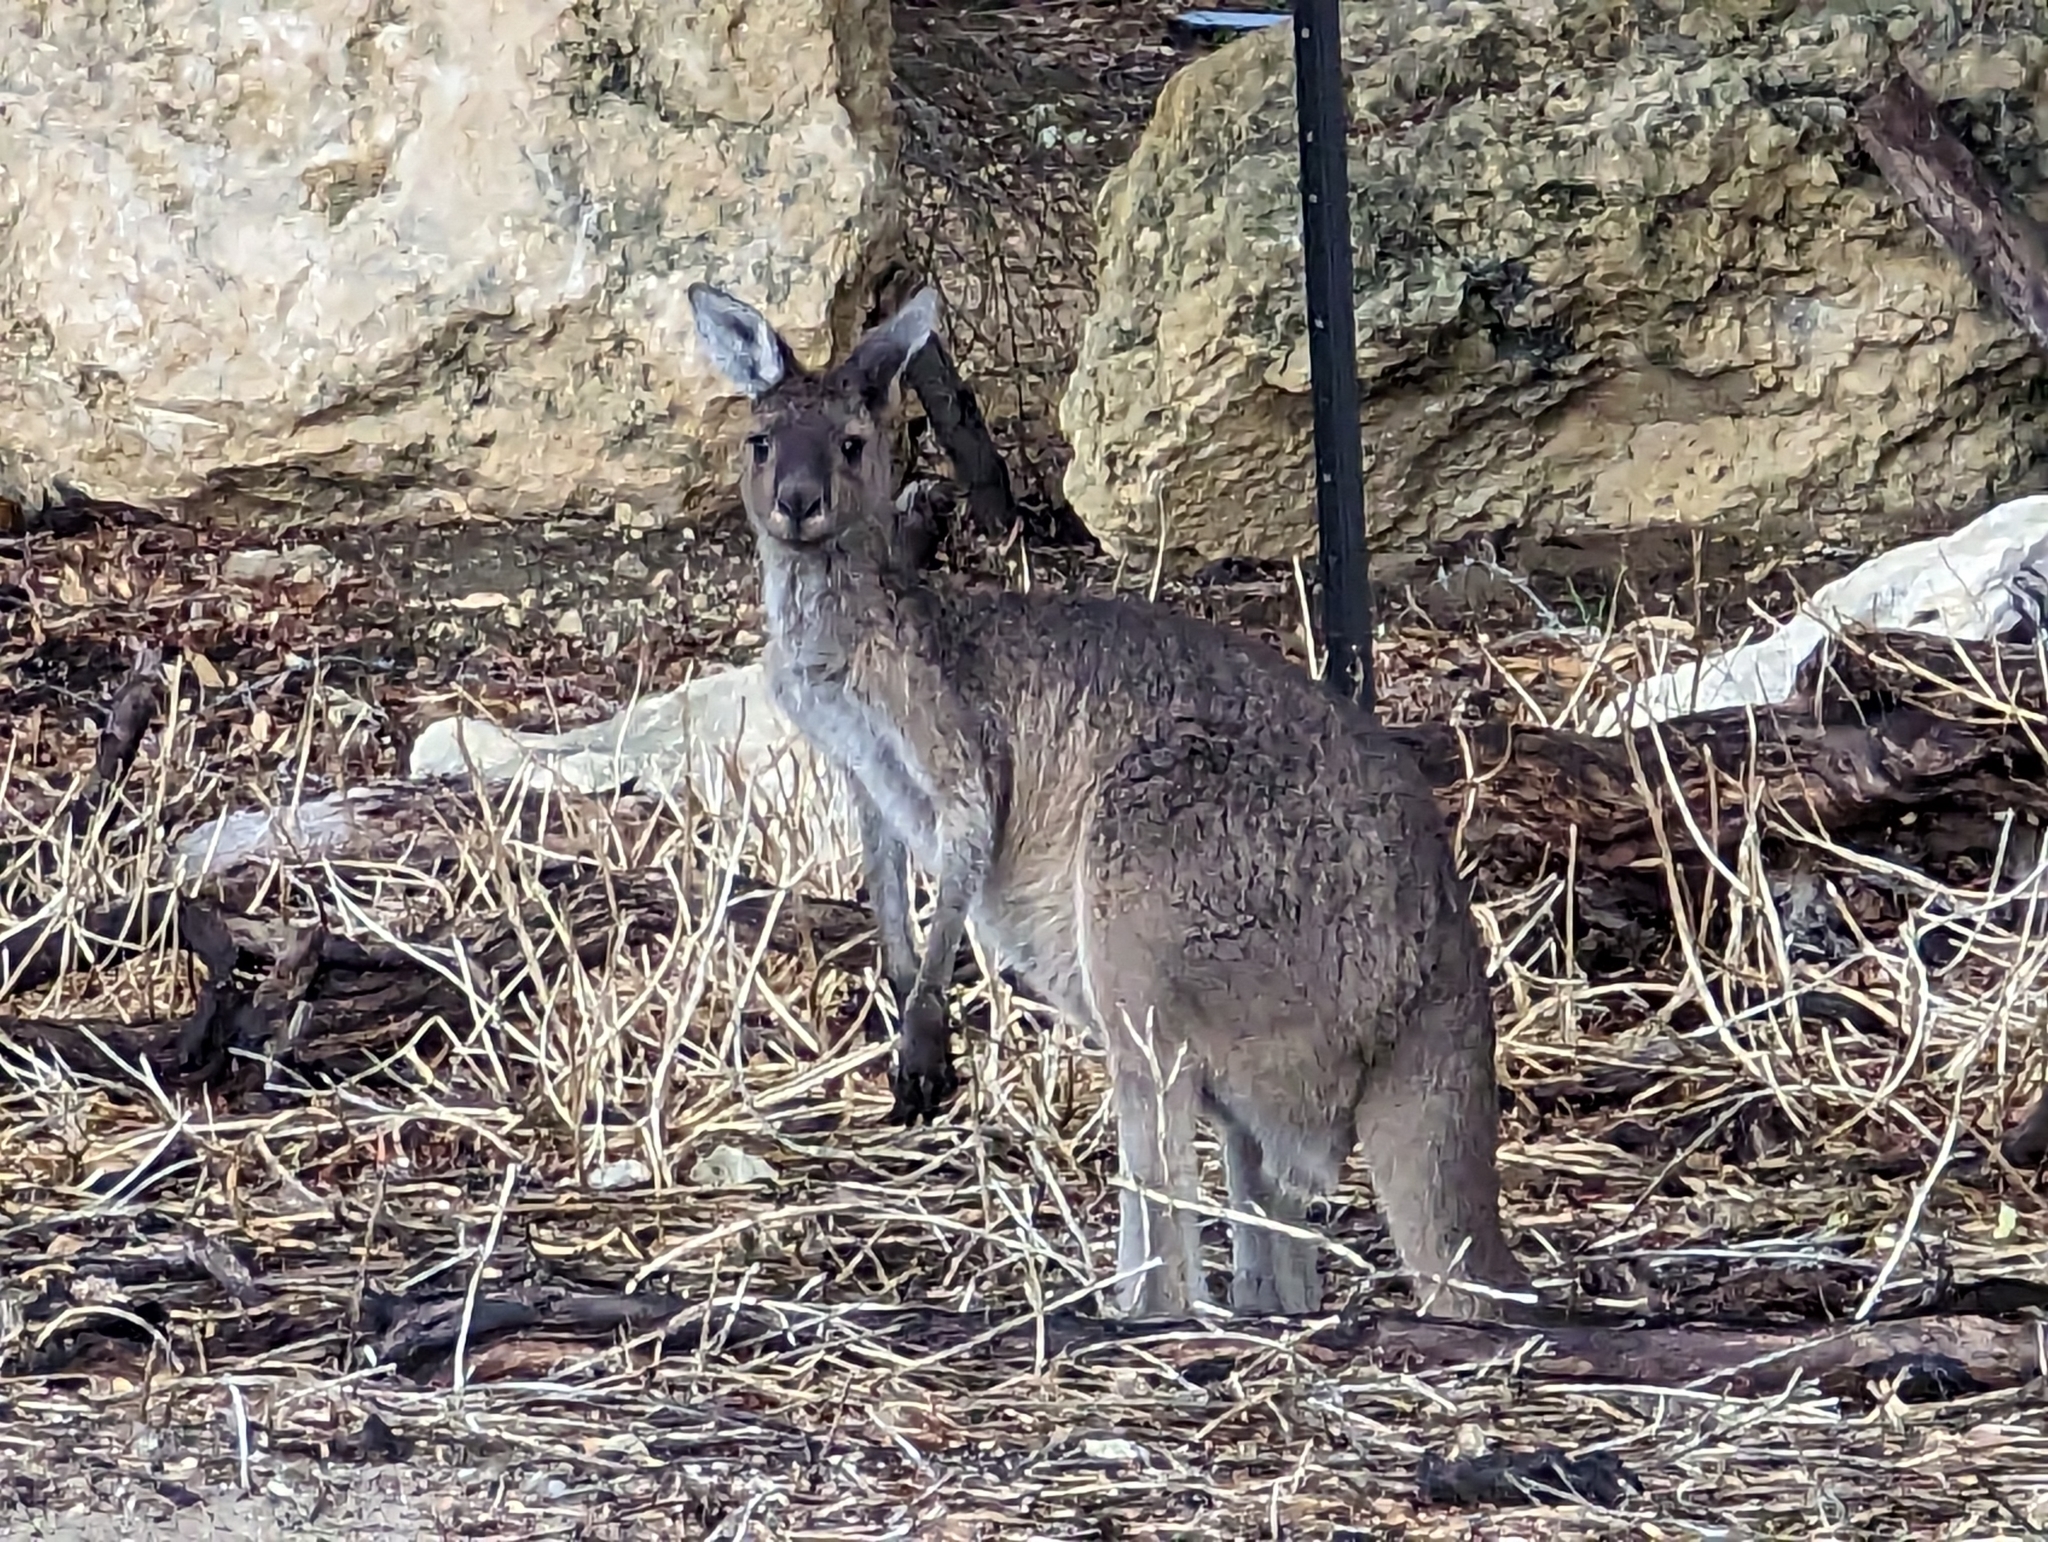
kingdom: Animalia
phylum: Chordata
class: Mammalia
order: Diprotodontia
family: Macropodidae
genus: Macropus
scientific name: Macropus fuliginosus
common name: Western grey kangaroo
